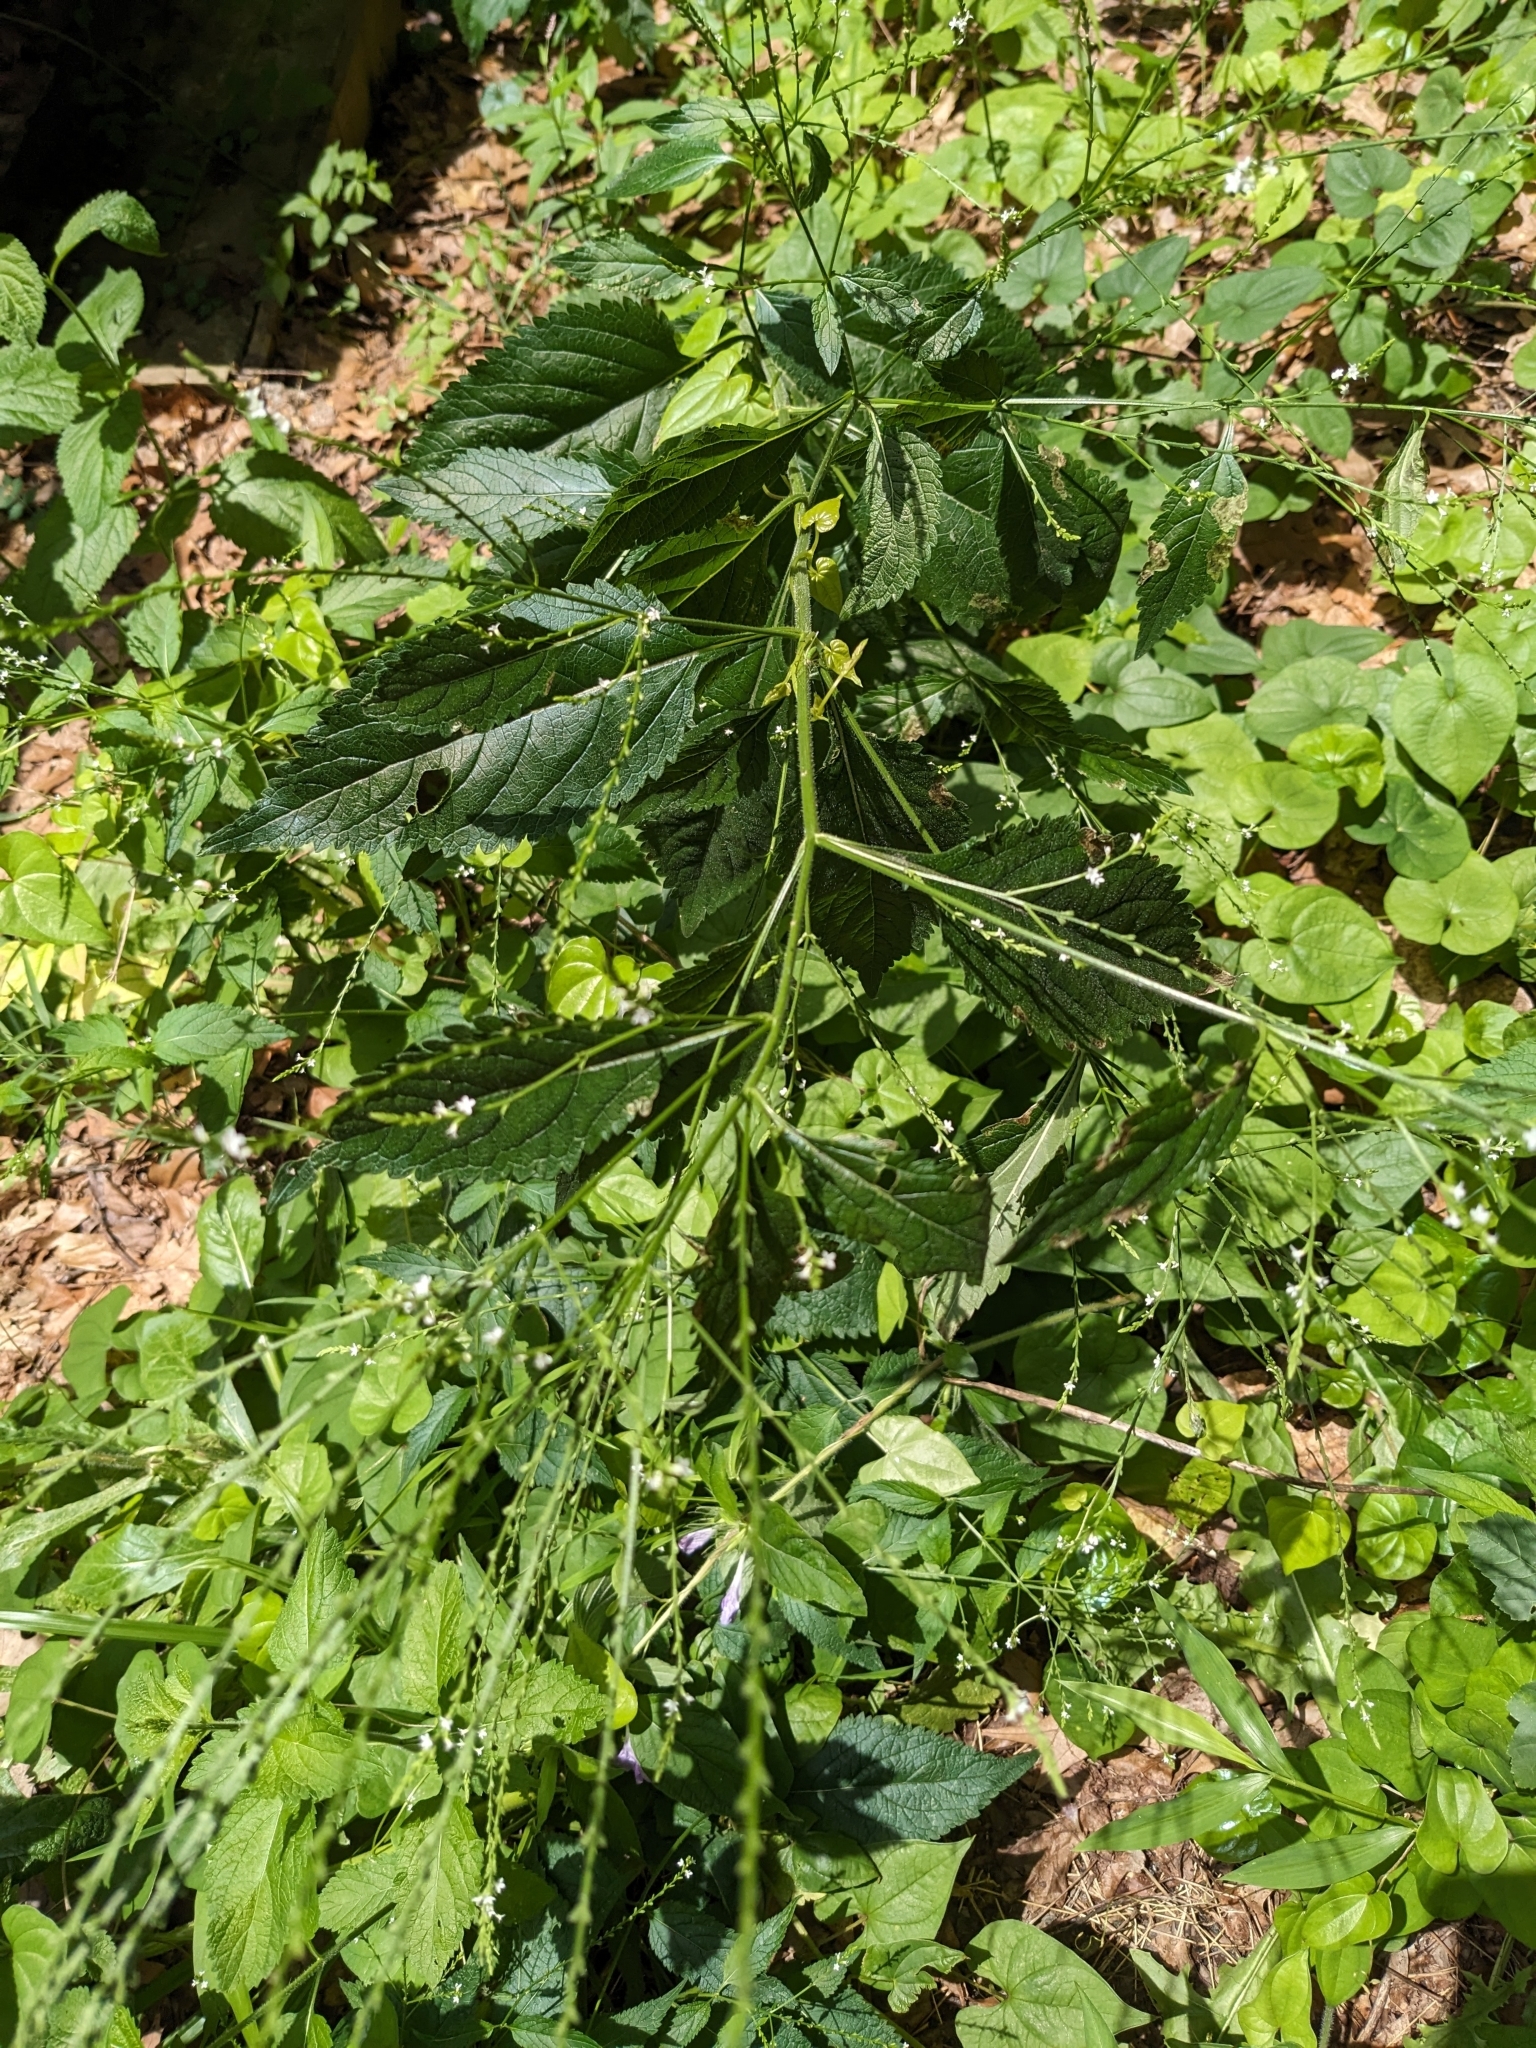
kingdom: Plantae
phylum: Tracheophyta
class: Magnoliopsida
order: Lamiales
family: Verbenaceae
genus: Verbena
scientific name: Verbena urticifolia
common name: Nettle-leaved vervain
